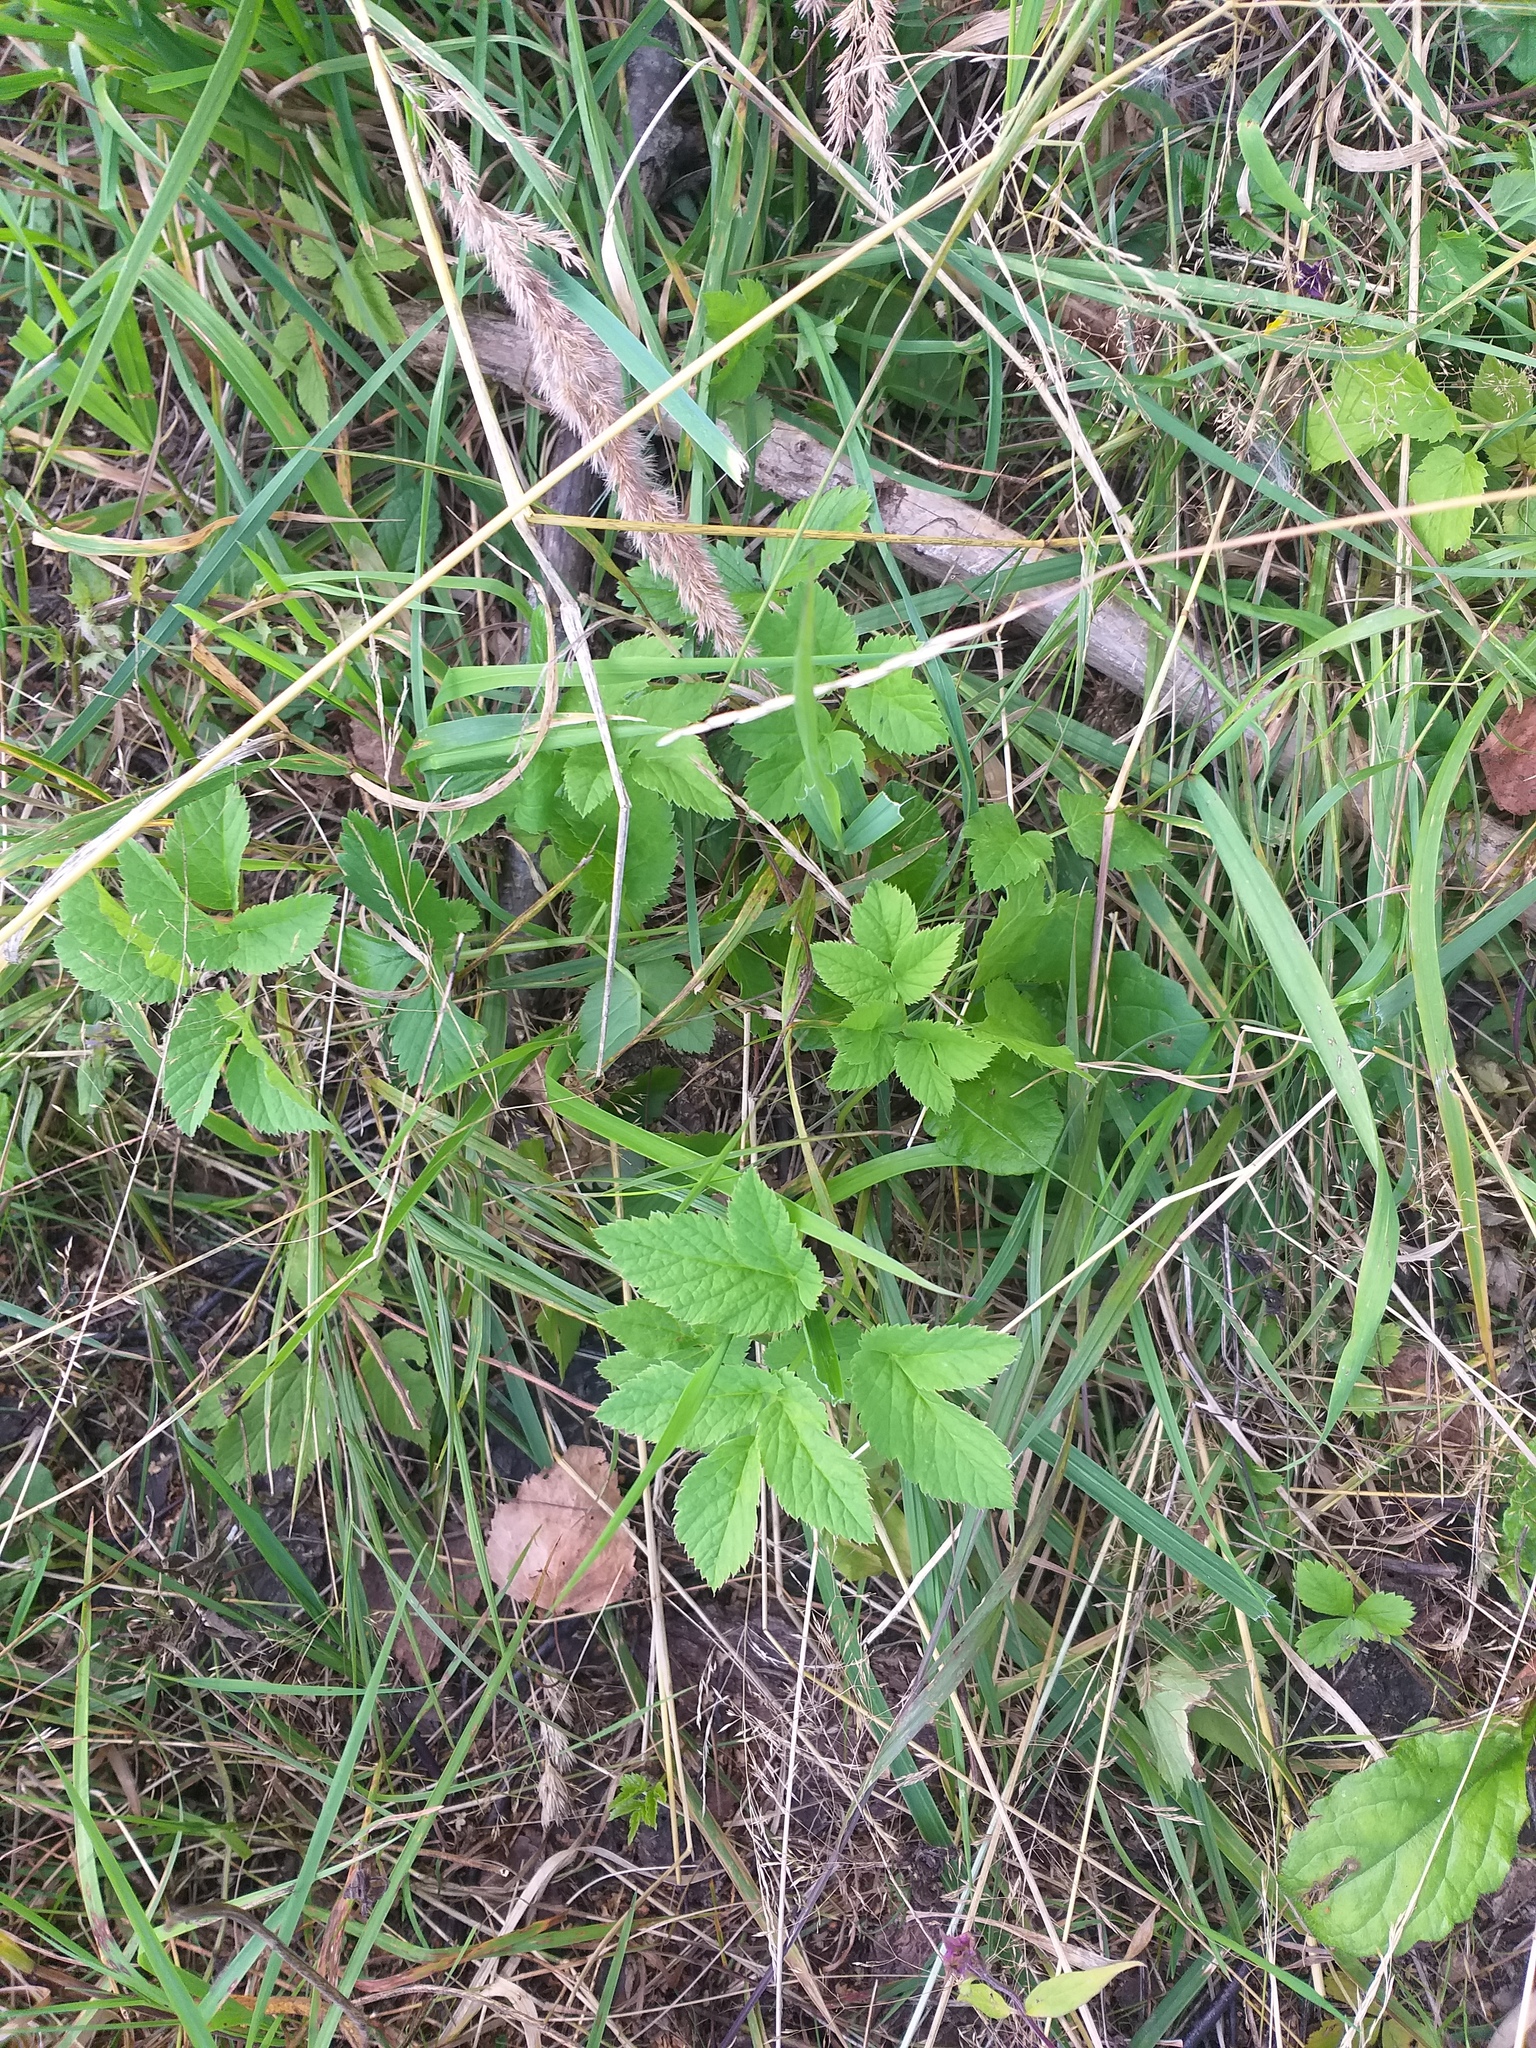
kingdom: Plantae
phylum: Tracheophyta
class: Magnoliopsida
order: Apiales
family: Apiaceae
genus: Aegopodium
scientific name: Aegopodium podagraria
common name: Ground-elder
